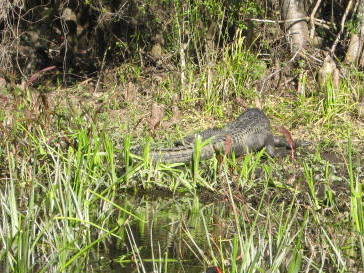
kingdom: Animalia
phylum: Chordata
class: Crocodylia
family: Alligatoridae
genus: Alligator
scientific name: Alligator mississippiensis
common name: American alligator
